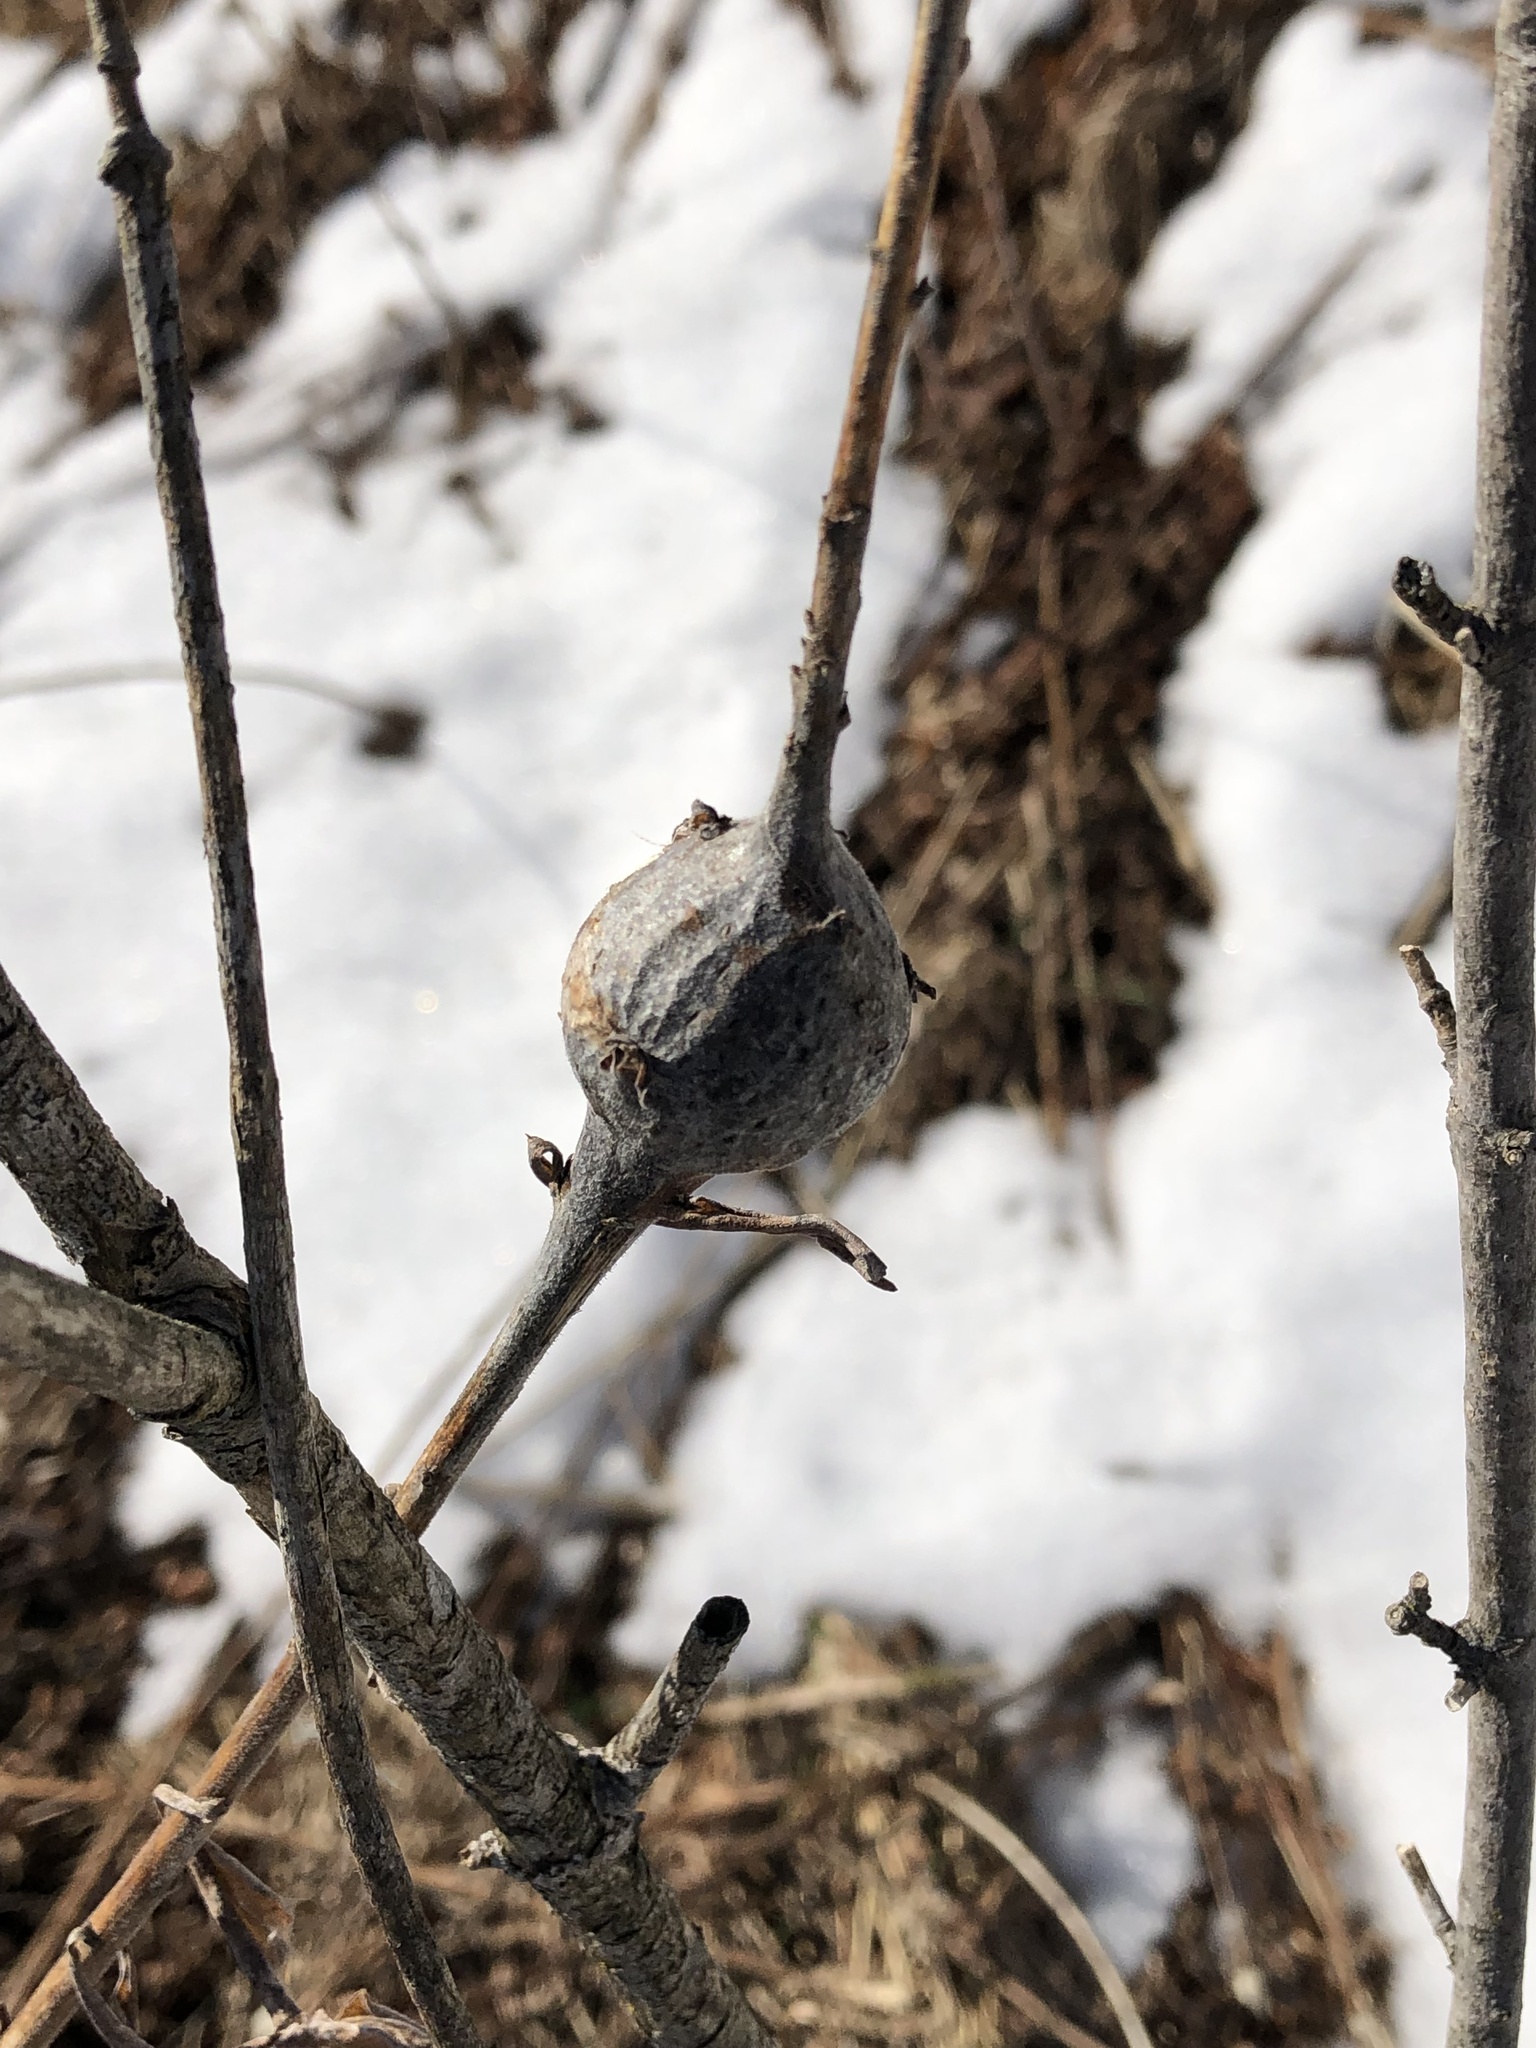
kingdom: Animalia
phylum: Arthropoda
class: Insecta
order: Diptera
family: Tephritidae
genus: Eurosta
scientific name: Eurosta solidaginis
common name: Goldenrod gall fly
